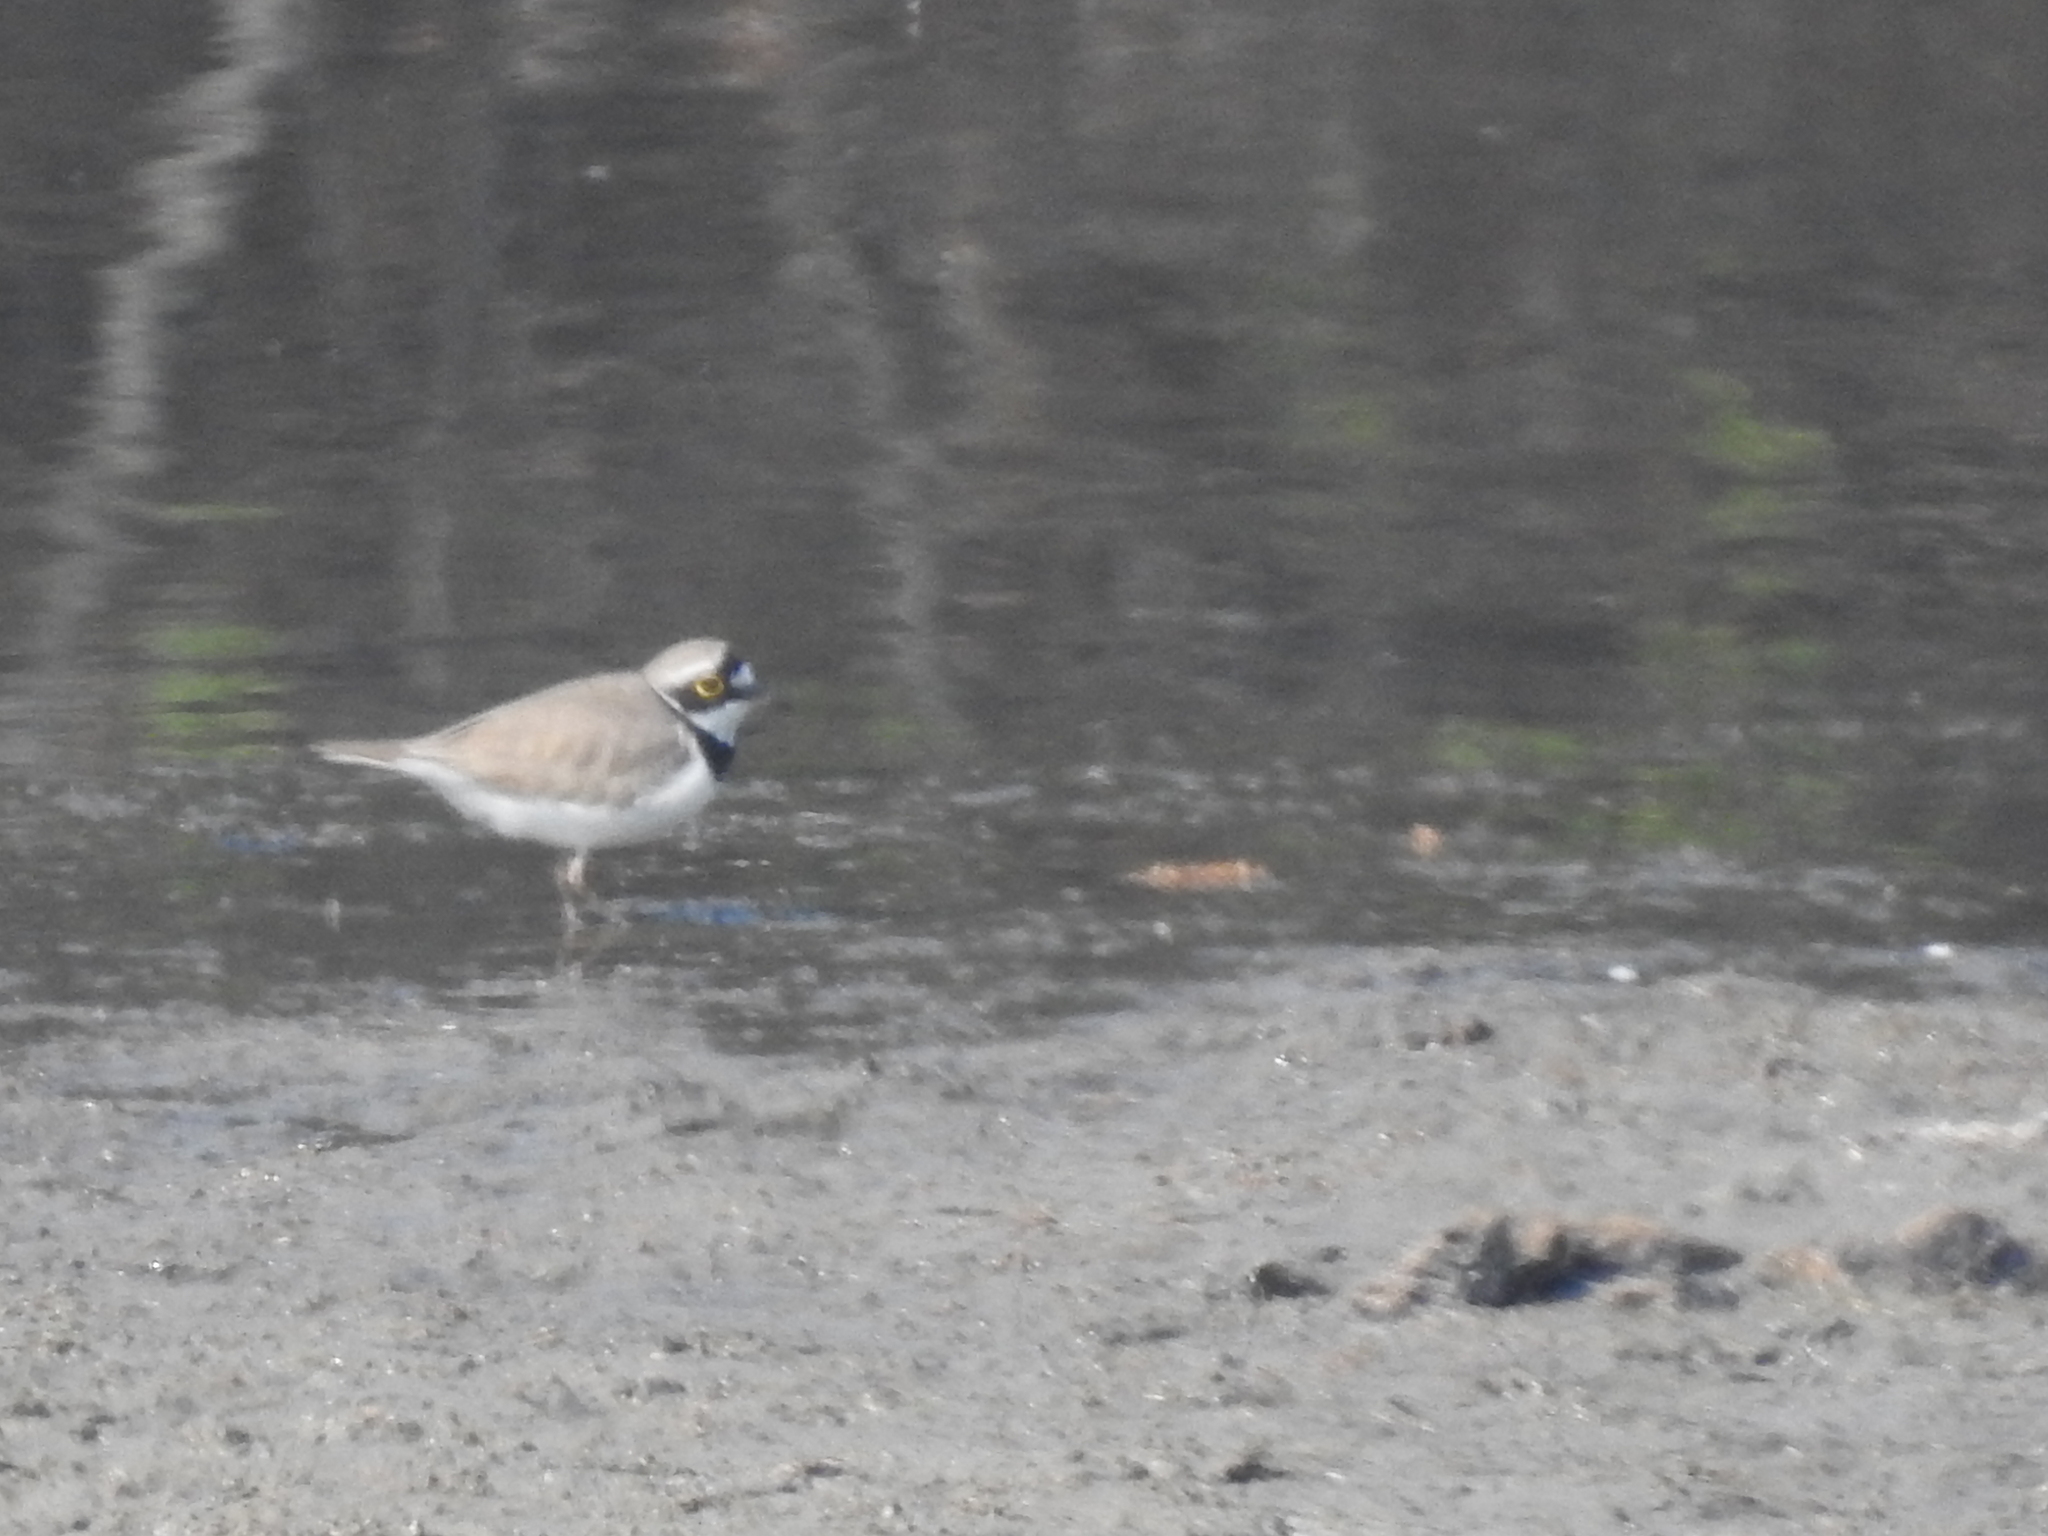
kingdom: Animalia
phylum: Chordata
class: Aves
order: Charadriiformes
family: Charadriidae
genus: Charadrius
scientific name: Charadrius dubius
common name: Little ringed plover
